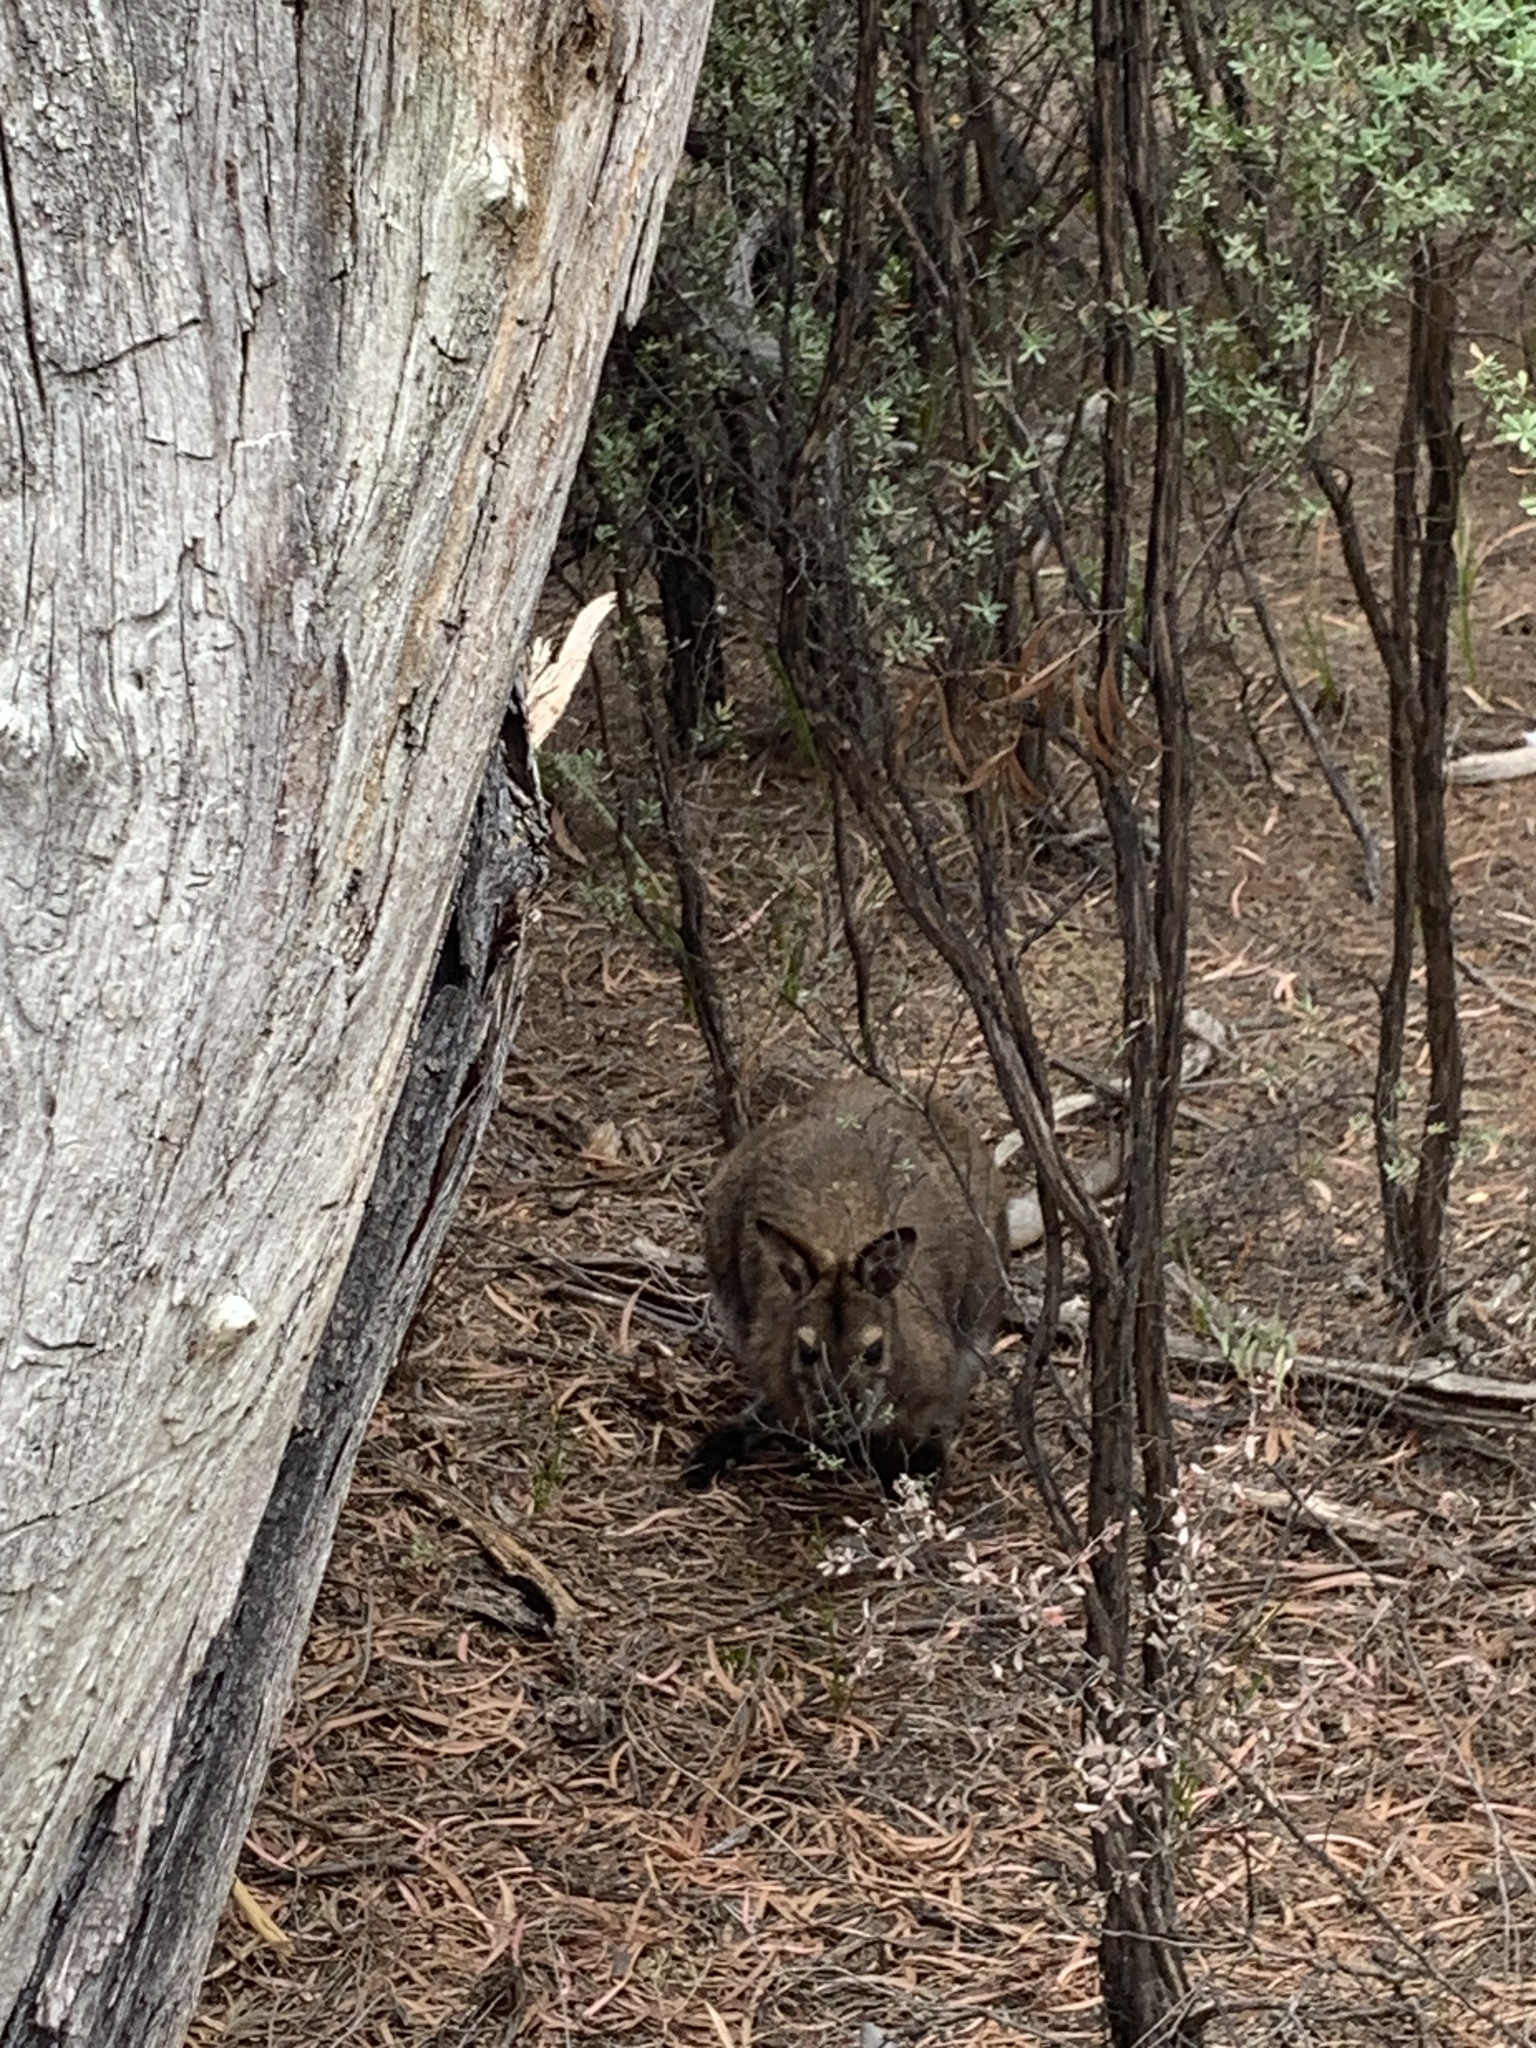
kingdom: Animalia
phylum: Chordata
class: Mammalia
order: Diprotodontia
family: Macropodidae
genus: Notamacropus
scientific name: Notamacropus rufogriseus
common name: Red-necked wallaby
